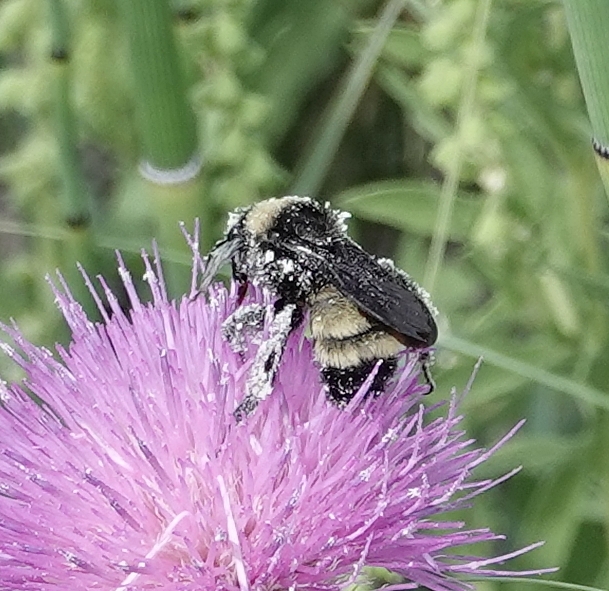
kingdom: Animalia
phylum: Arthropoda
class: Insecta
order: Hymenoptera
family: Apidae
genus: Bombus
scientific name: Bombus pensylvanicus
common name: Bumble bee
